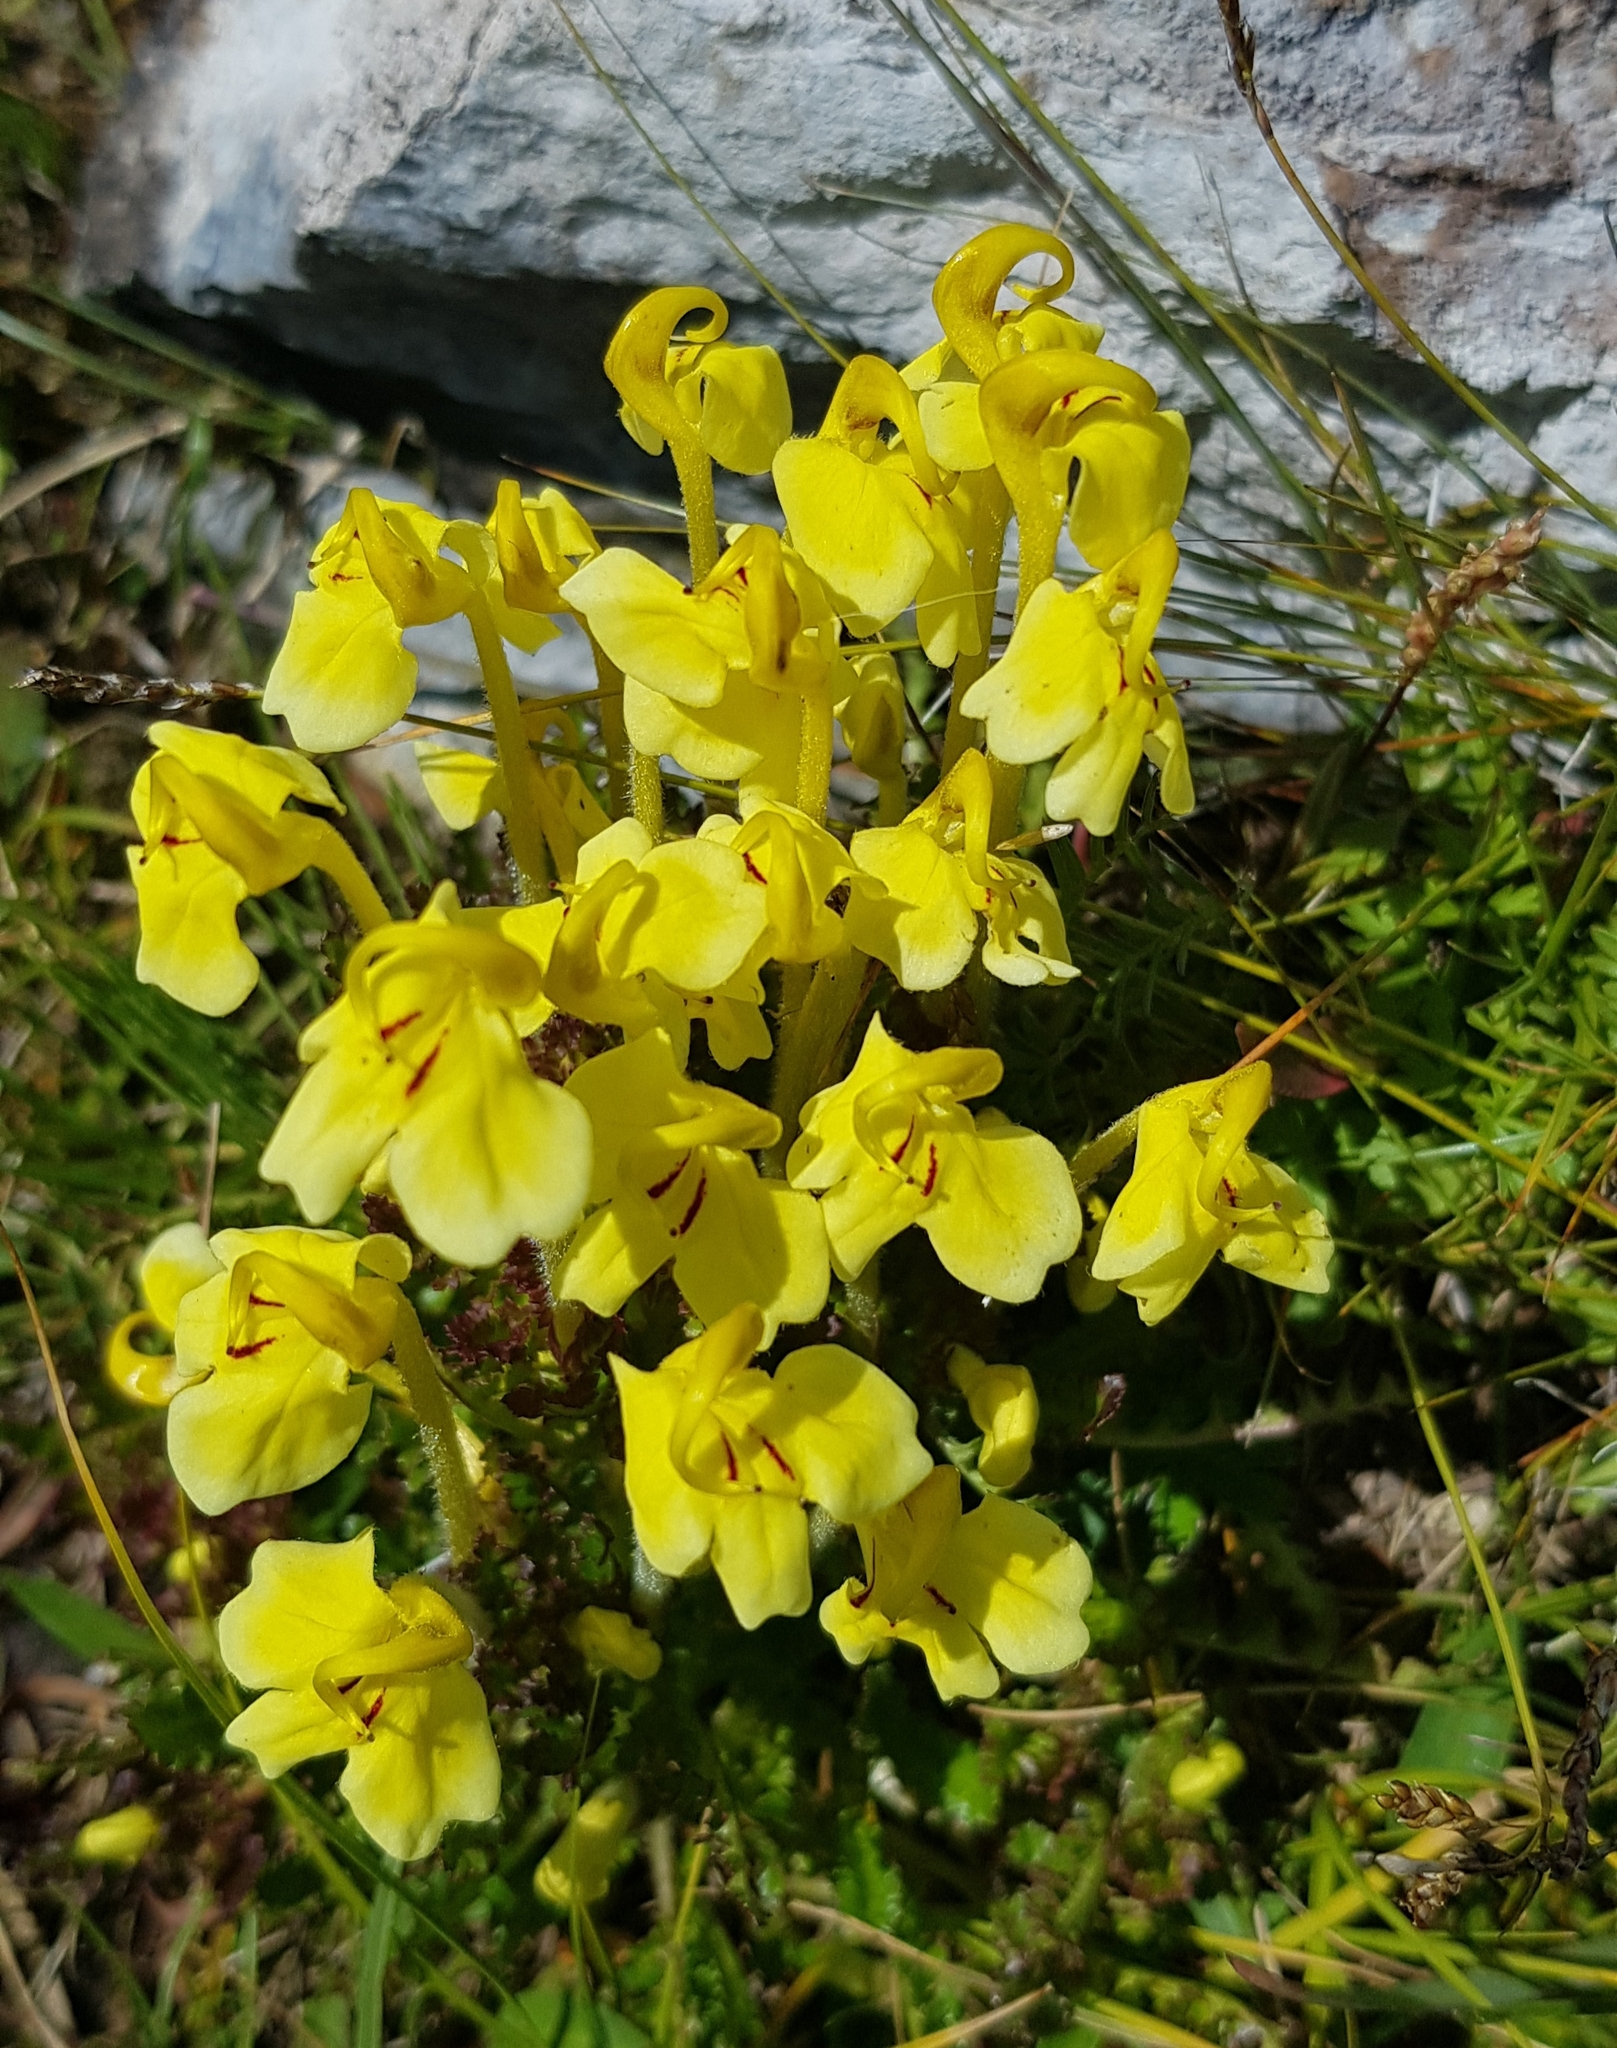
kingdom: Plantae
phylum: Tracheophyta
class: Magnoliopsida
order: Lamiales
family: Orobanchaceae
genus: Pedicularis
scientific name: Pedicularis longiflora
